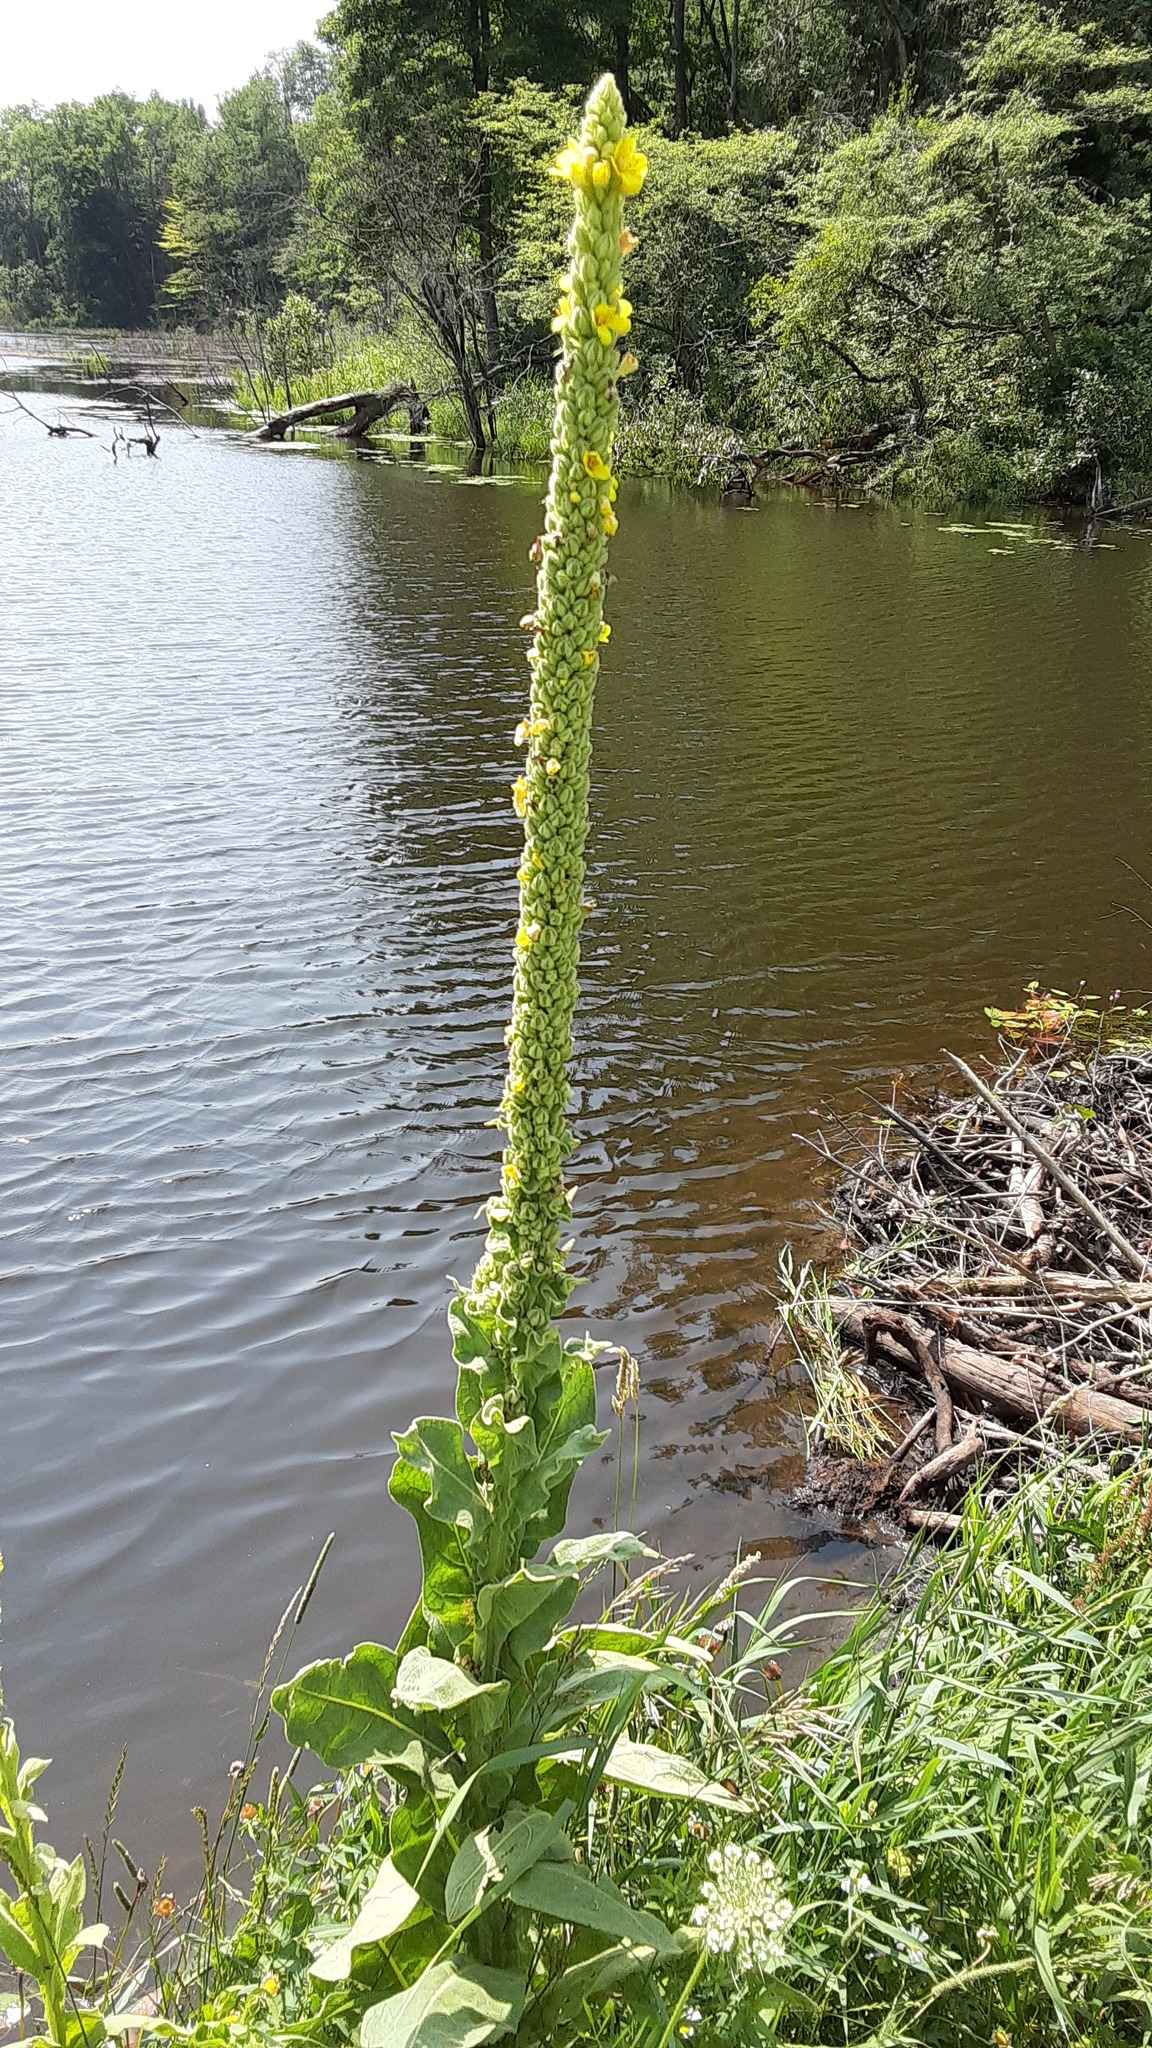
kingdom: Plantae
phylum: Tracheophyta
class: Magnoliopsida
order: Lamiales
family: Scrophulariaceae
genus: Verbascum
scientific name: Verbascum thapsus
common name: Common mullein
